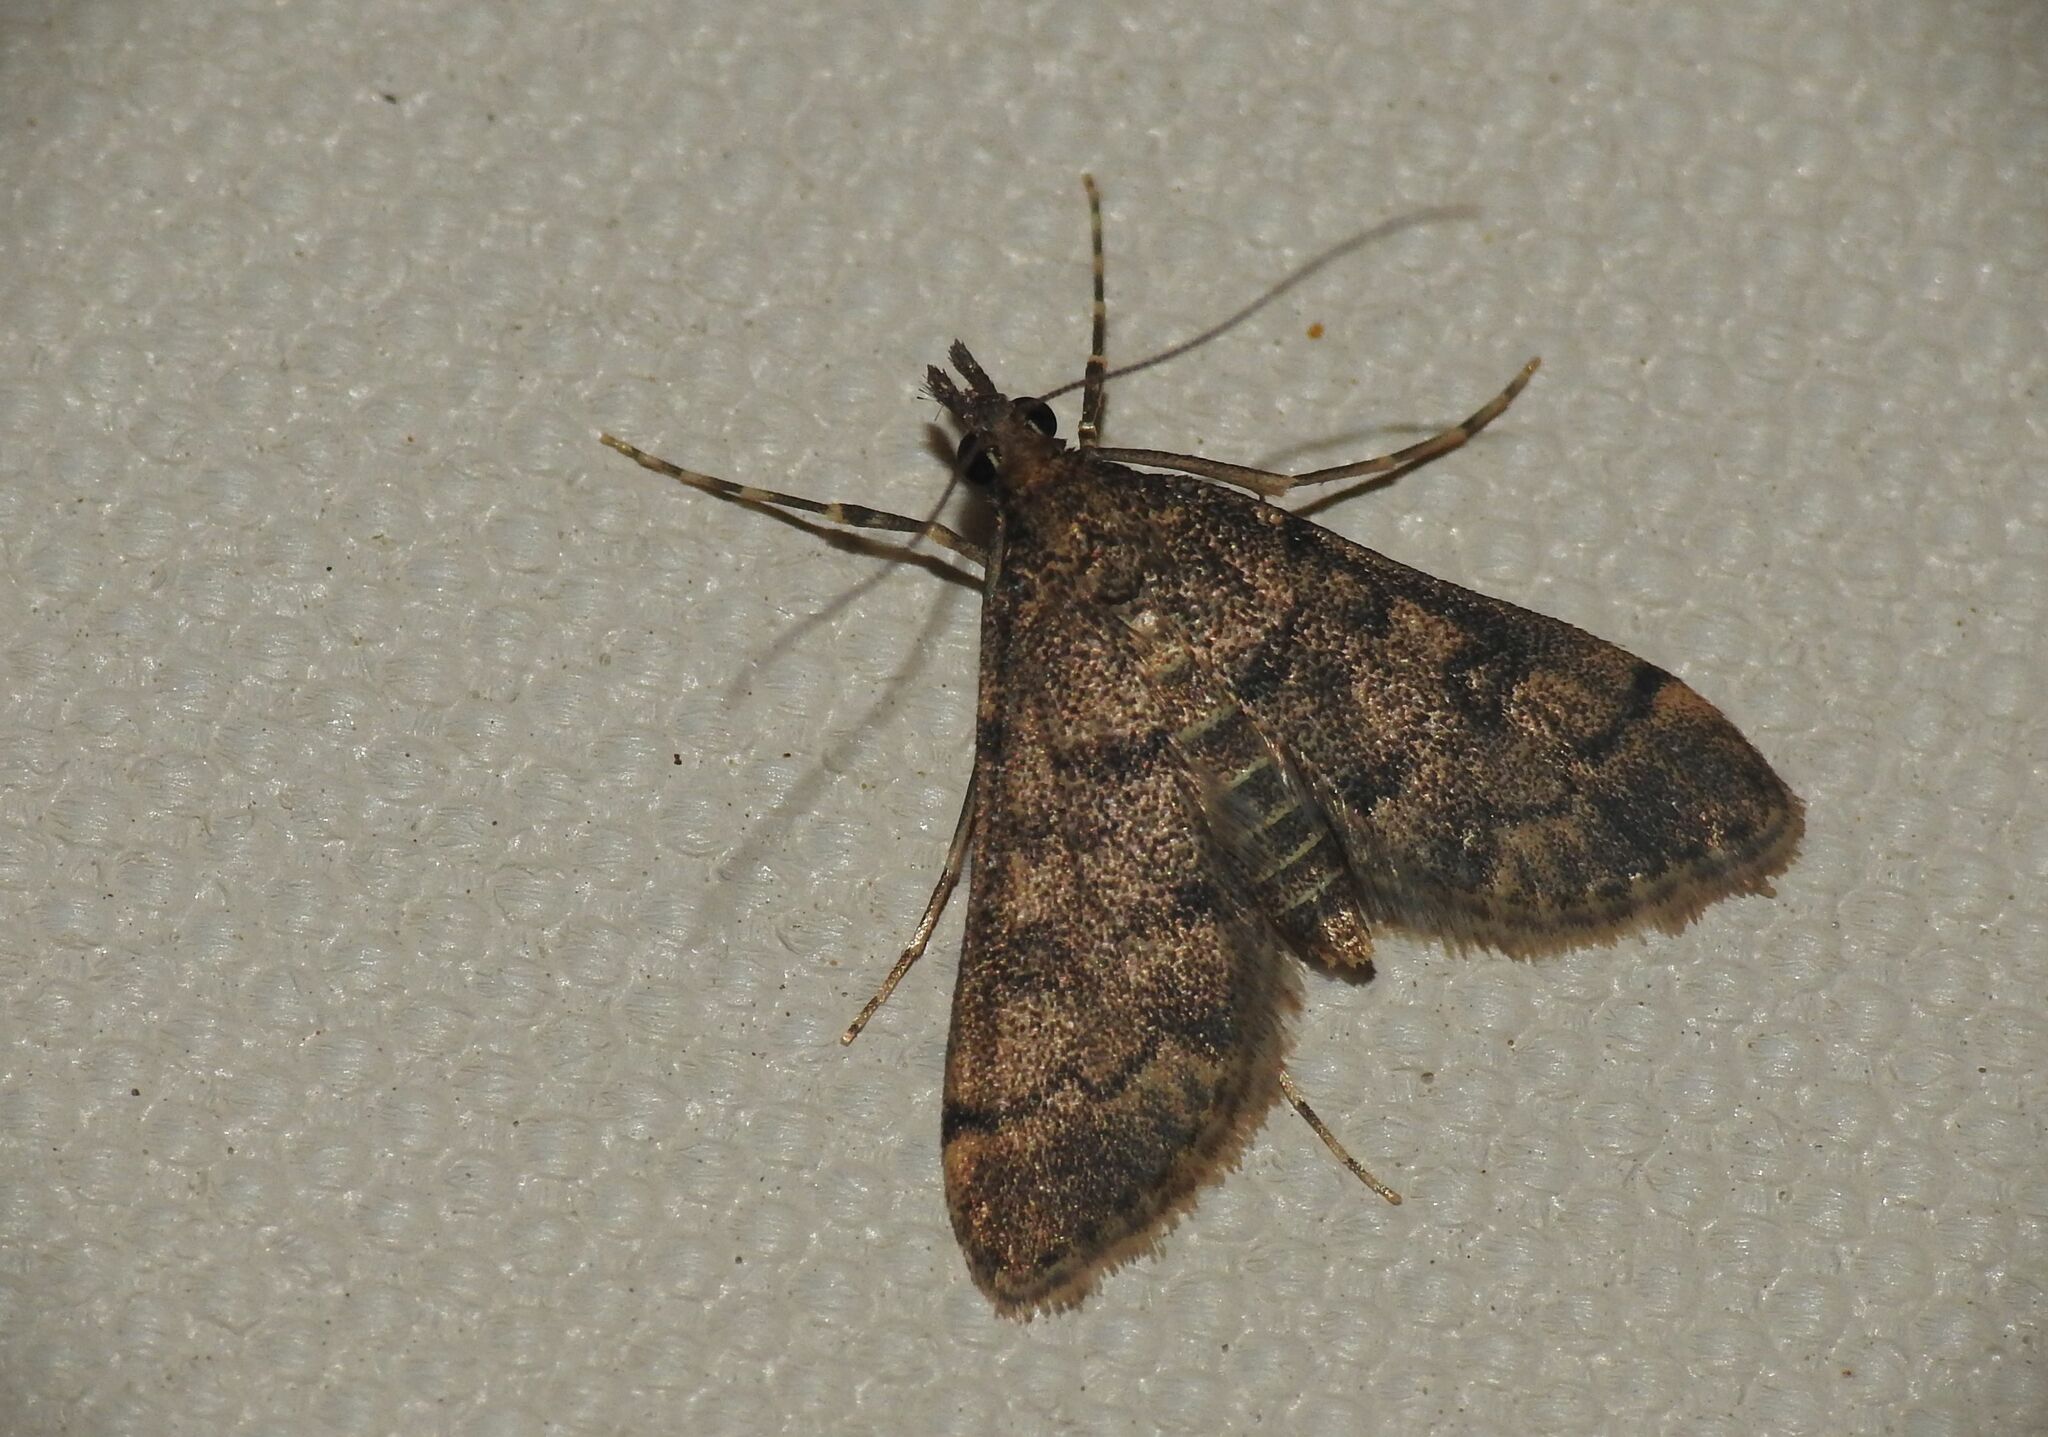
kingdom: Animalia
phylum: Arthropoda
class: Insecta
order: Lepidoptera
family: Crambidae
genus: Stenia
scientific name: Stenia Dolicharthria bruguieralis
